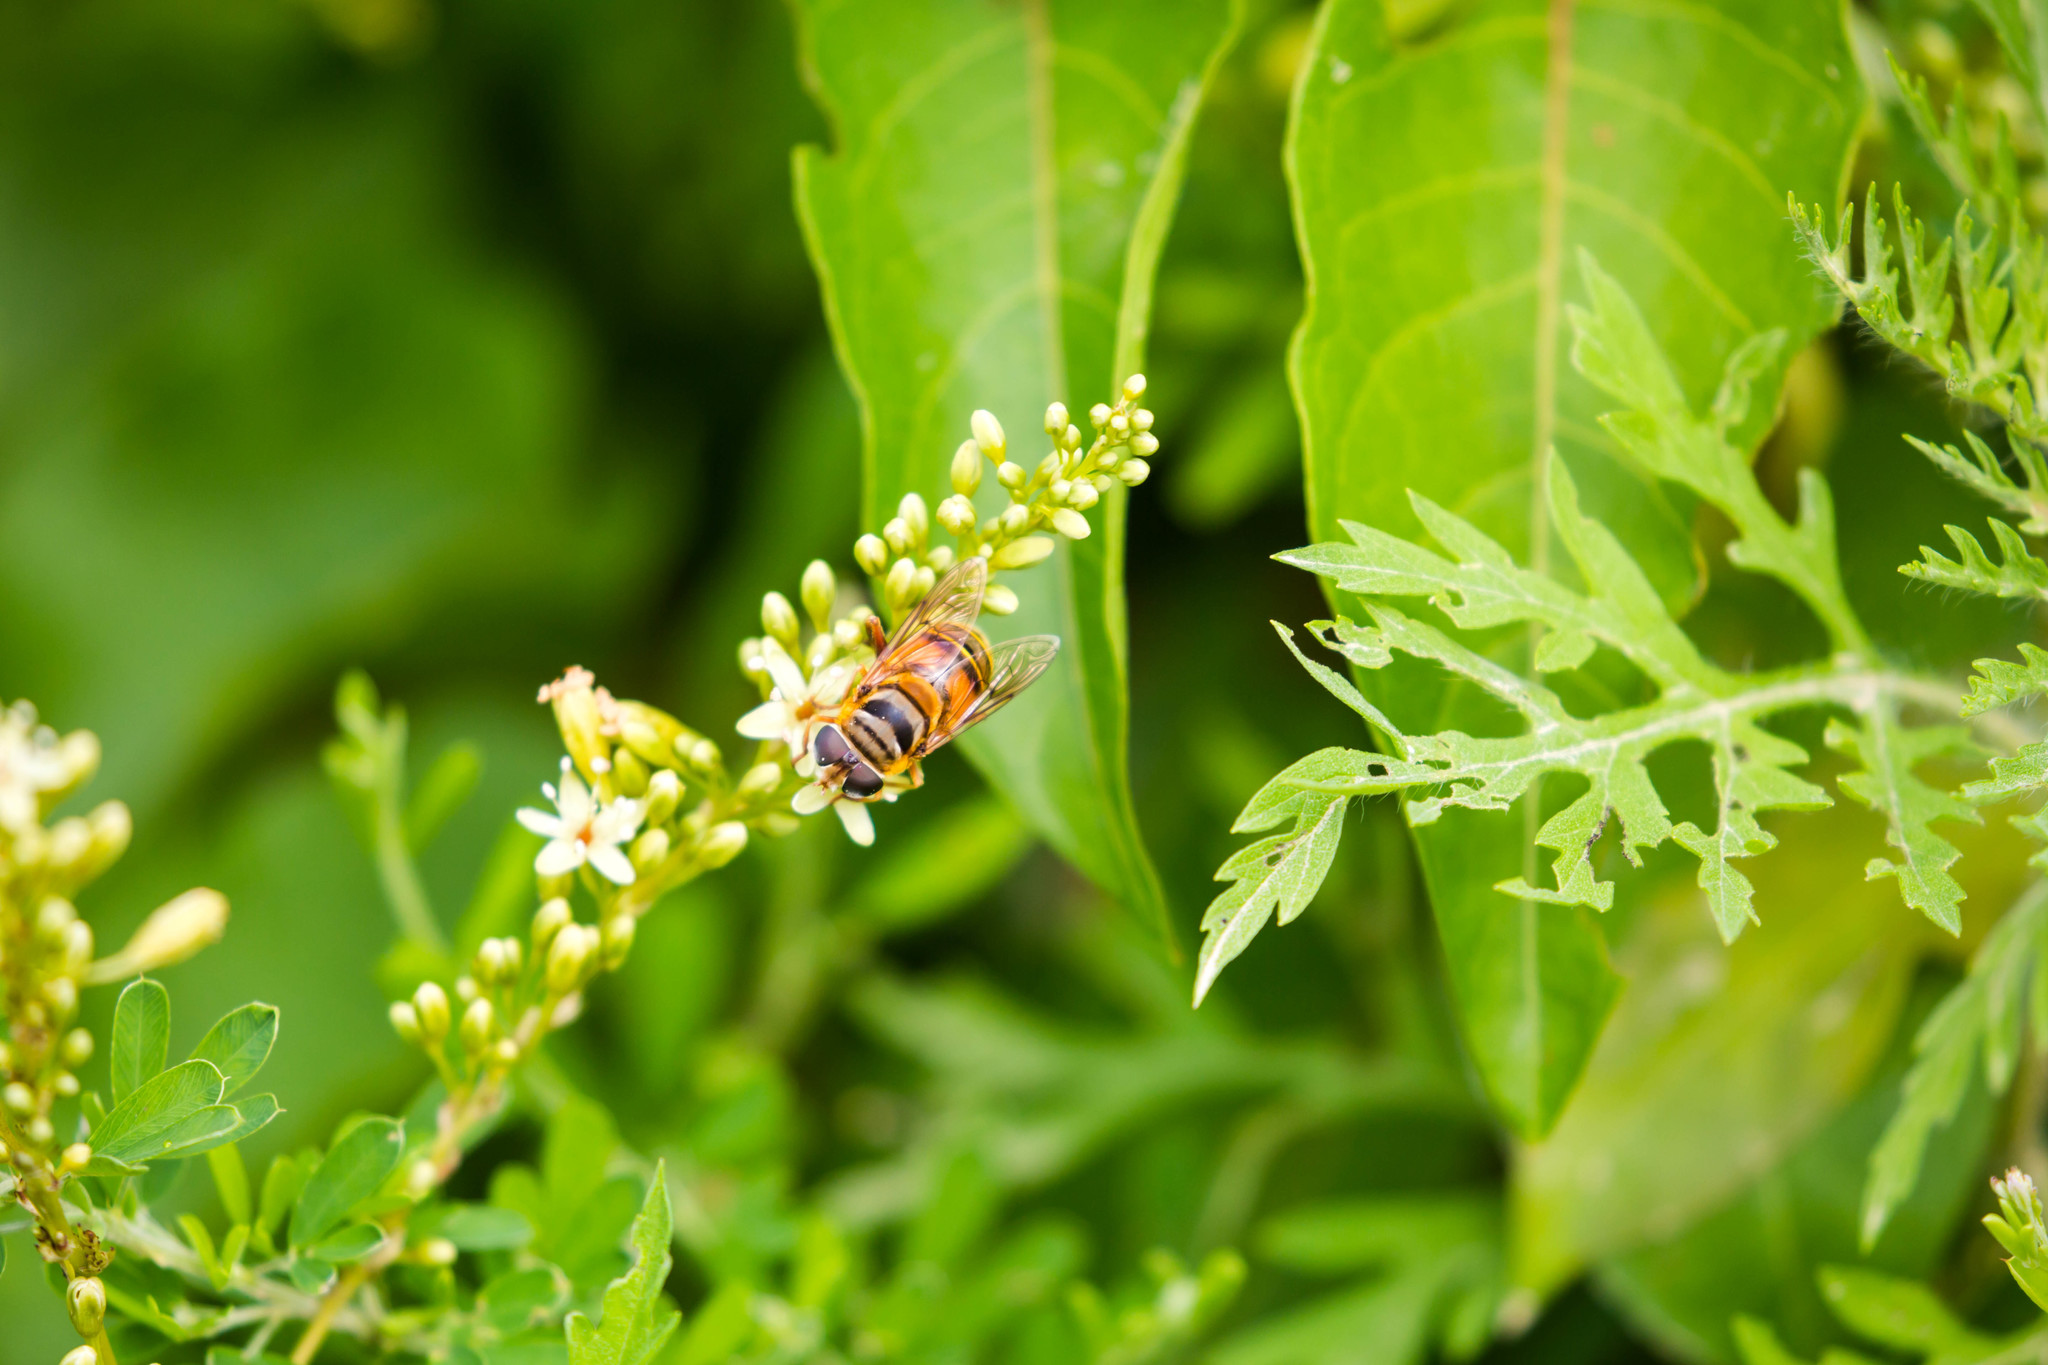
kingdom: Animalia
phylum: Arthropoda
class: Insecta
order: Diptera
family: Syrphidae
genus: Palpada
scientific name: Palpada vinetorum
